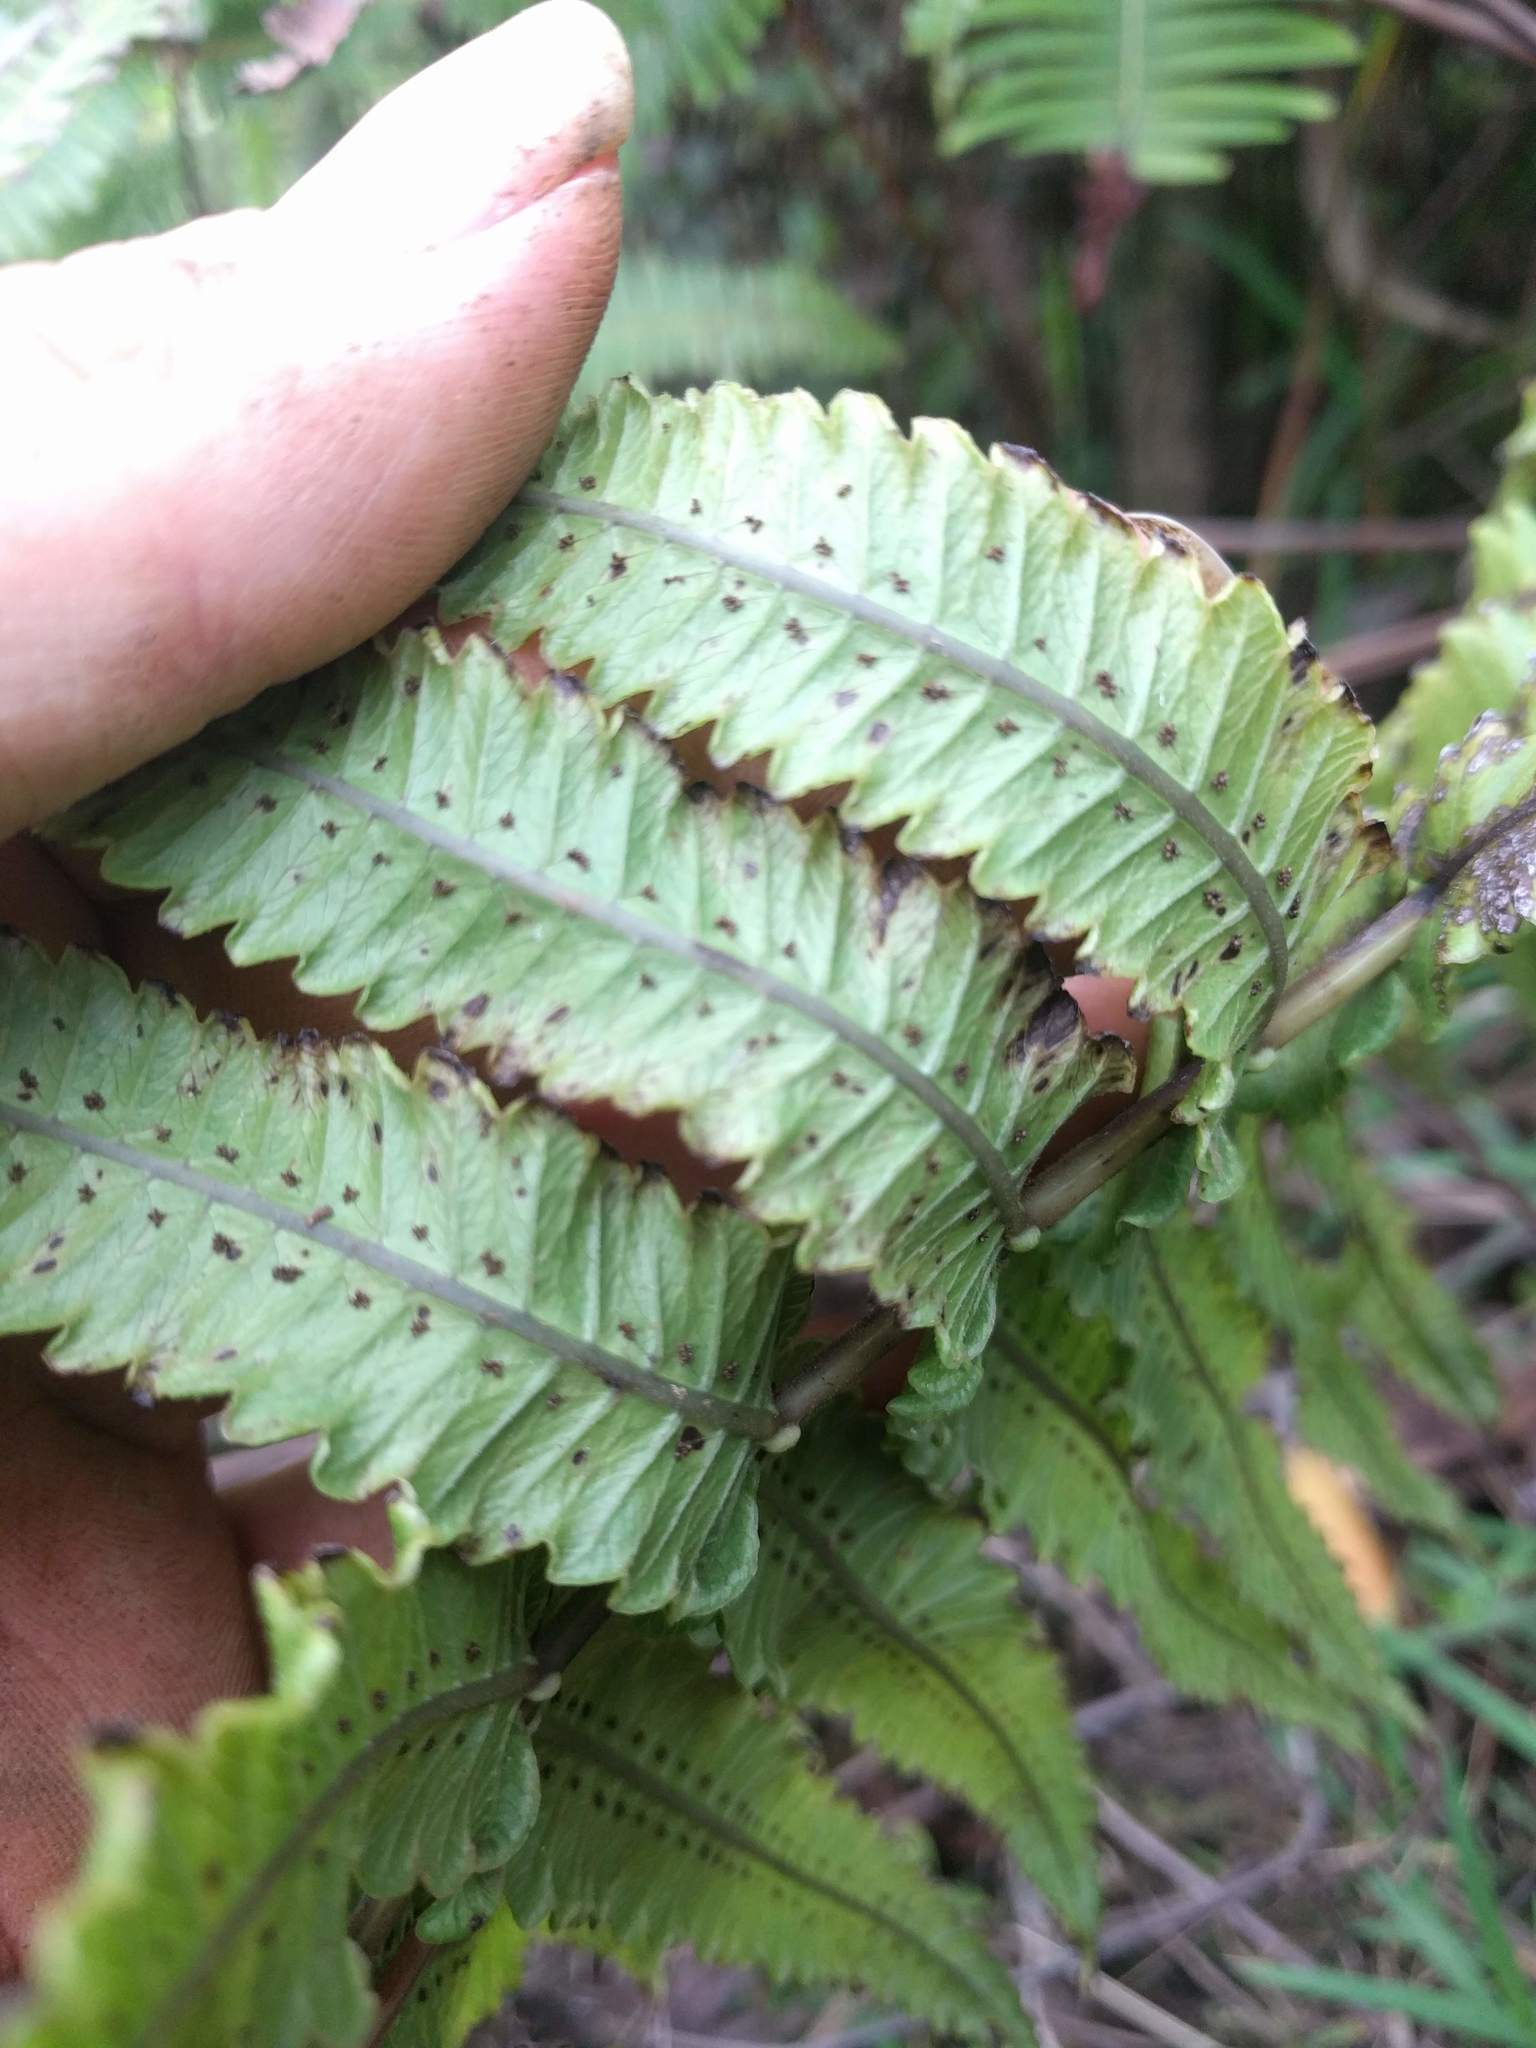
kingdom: Plantae
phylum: Tracheophyta
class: Polypodiopsida
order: Polypodiales
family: Thelypteridaceae
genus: Hoiokula
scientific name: Hoiokula sandwicensis
